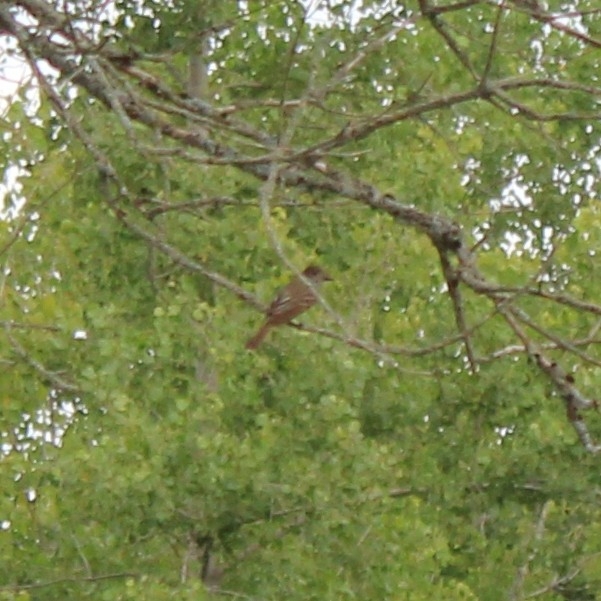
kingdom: Animalia
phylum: Chordata
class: Aves
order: Passeriformes
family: Tyrannidae
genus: Myiarchus
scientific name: Myiarchus crinitus
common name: Great crested flycatcher
